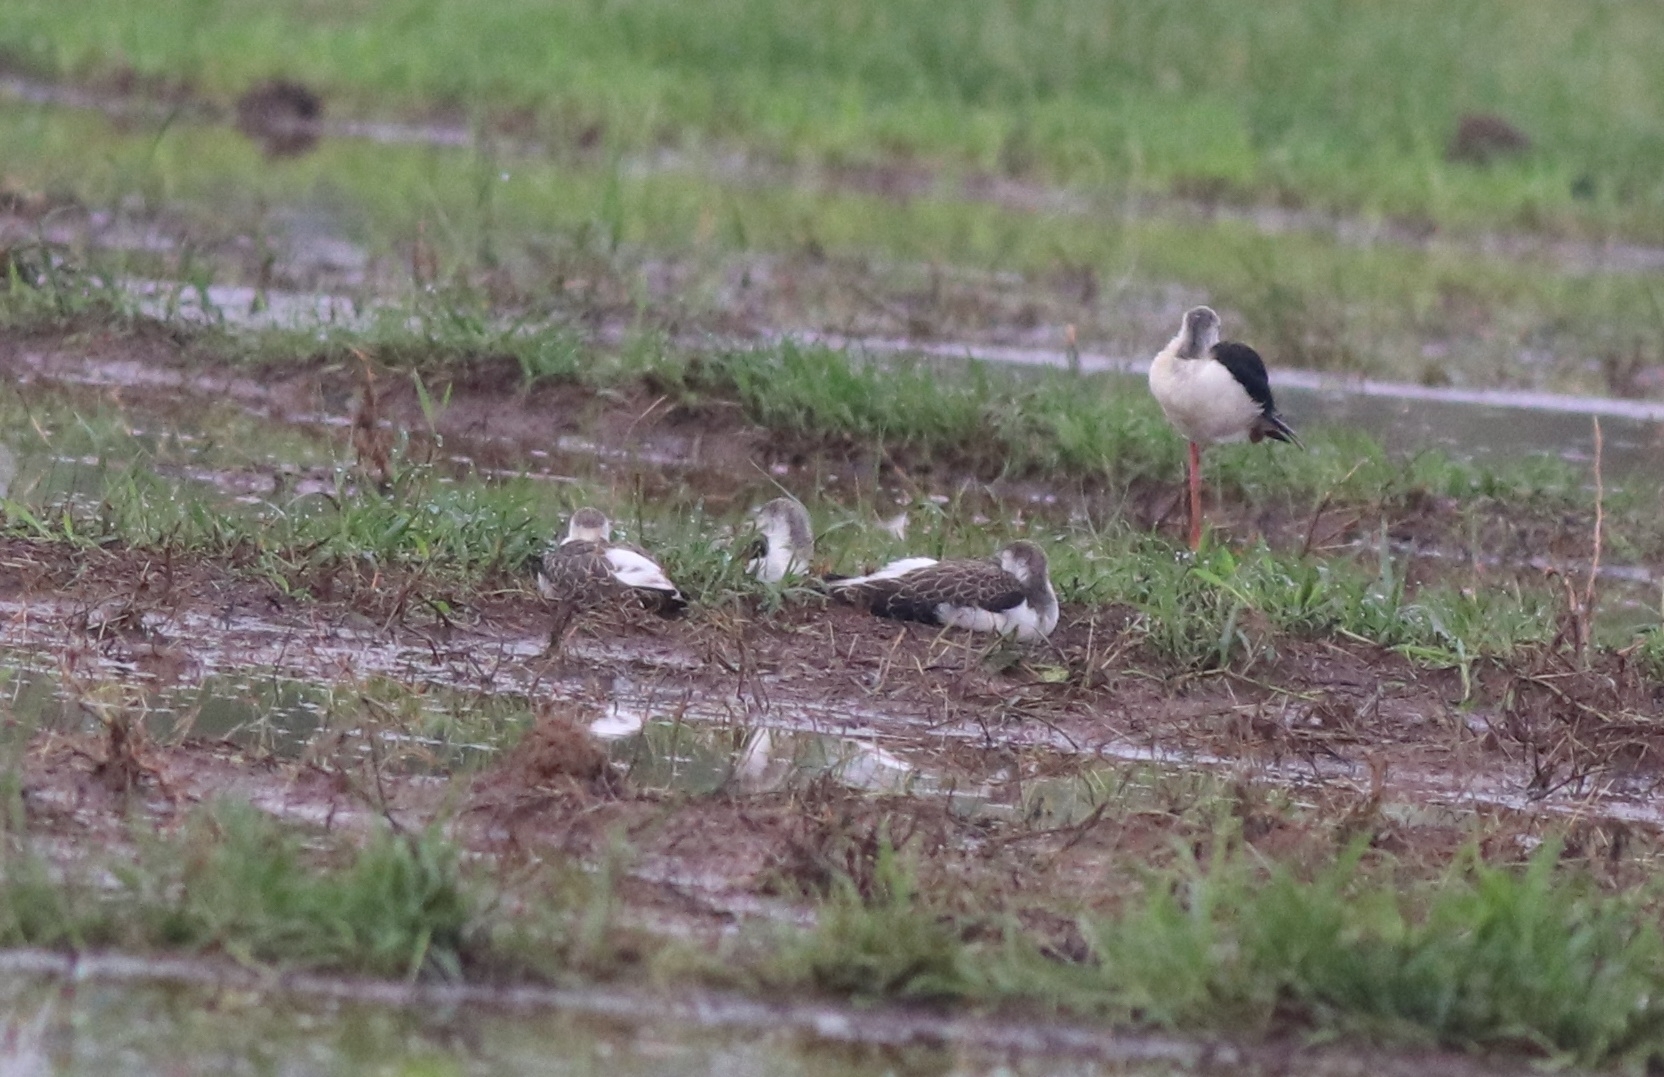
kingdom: Animalia
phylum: Chordata
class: Aves
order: Charadriiformes
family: Recurvirostridae
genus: Himantopus
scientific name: Himantopus himantopus
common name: Black-winged stilt
